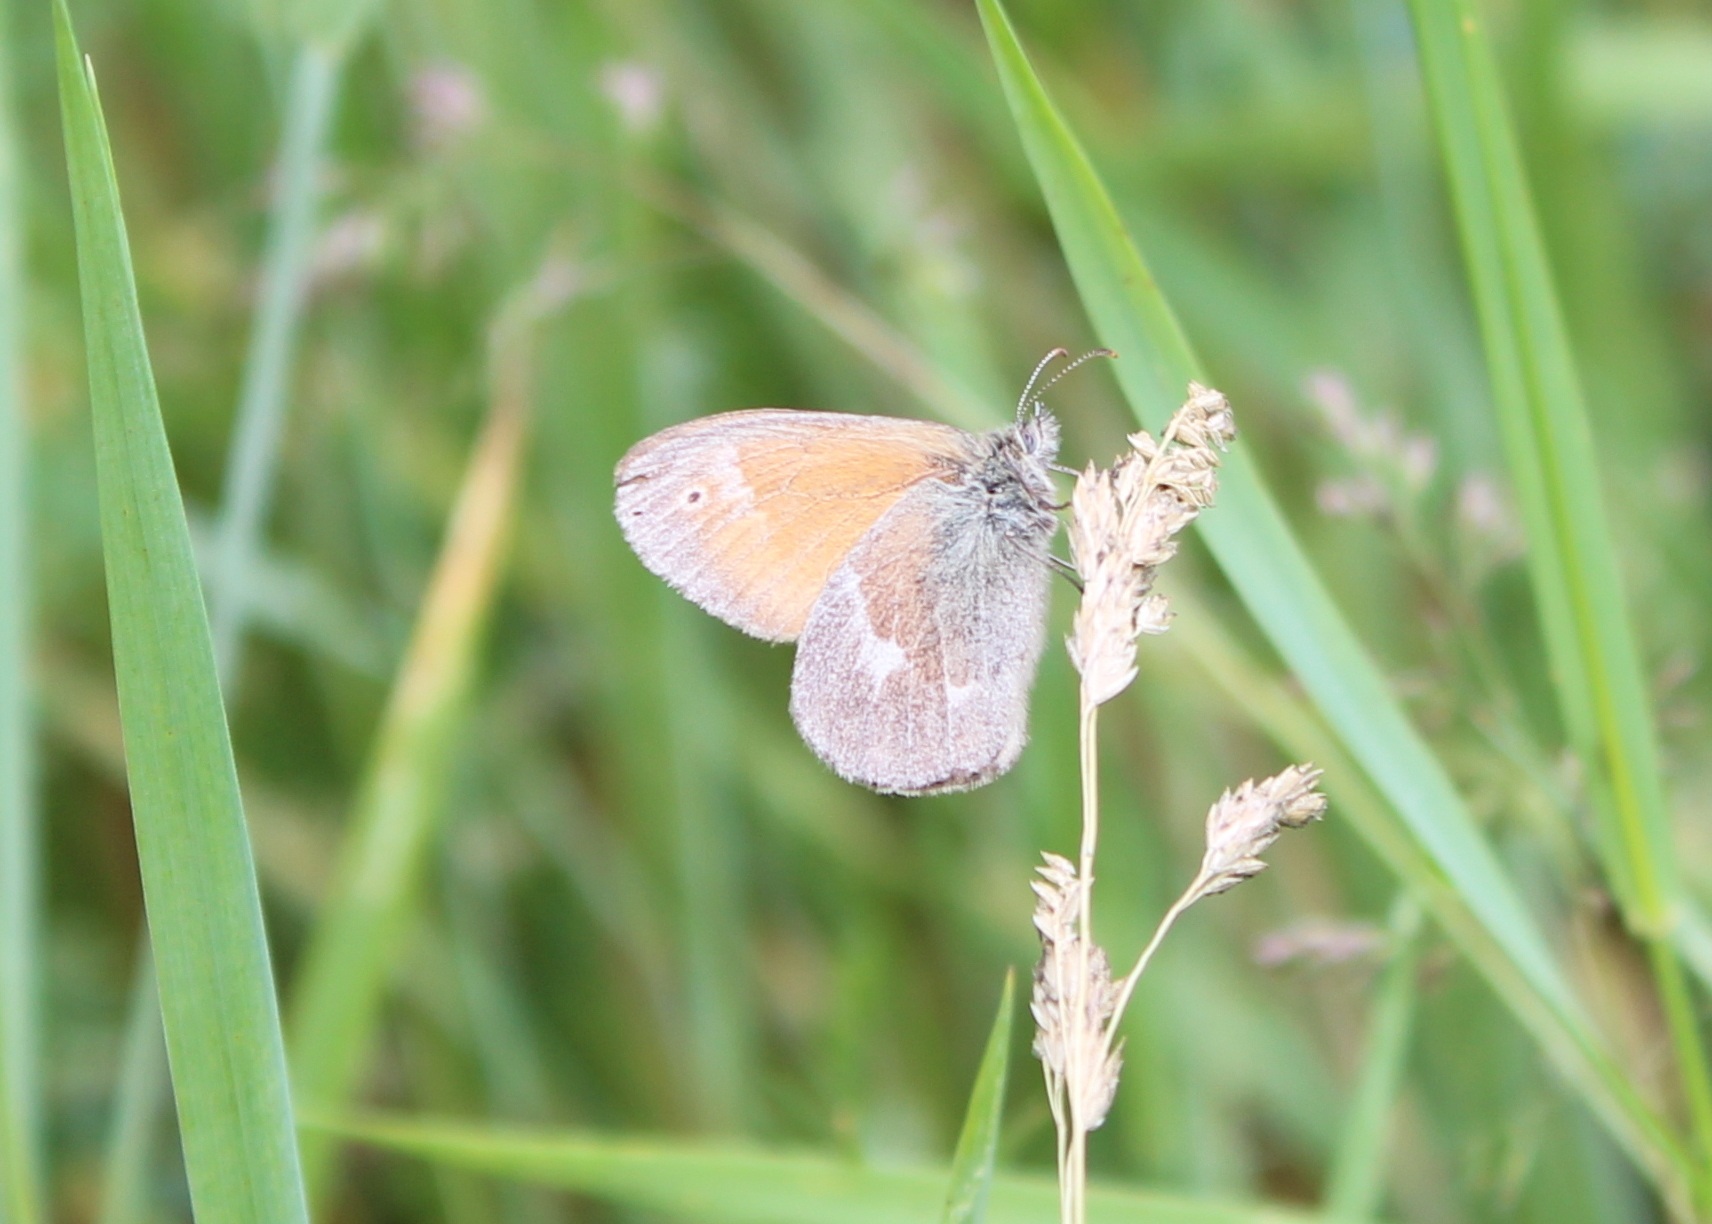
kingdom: Animalia
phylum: Arthropoda
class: Insecta
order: Lepidoptera
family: Nymphalidae
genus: Coenonympha
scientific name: Coenonympha california
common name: Common ringlet
